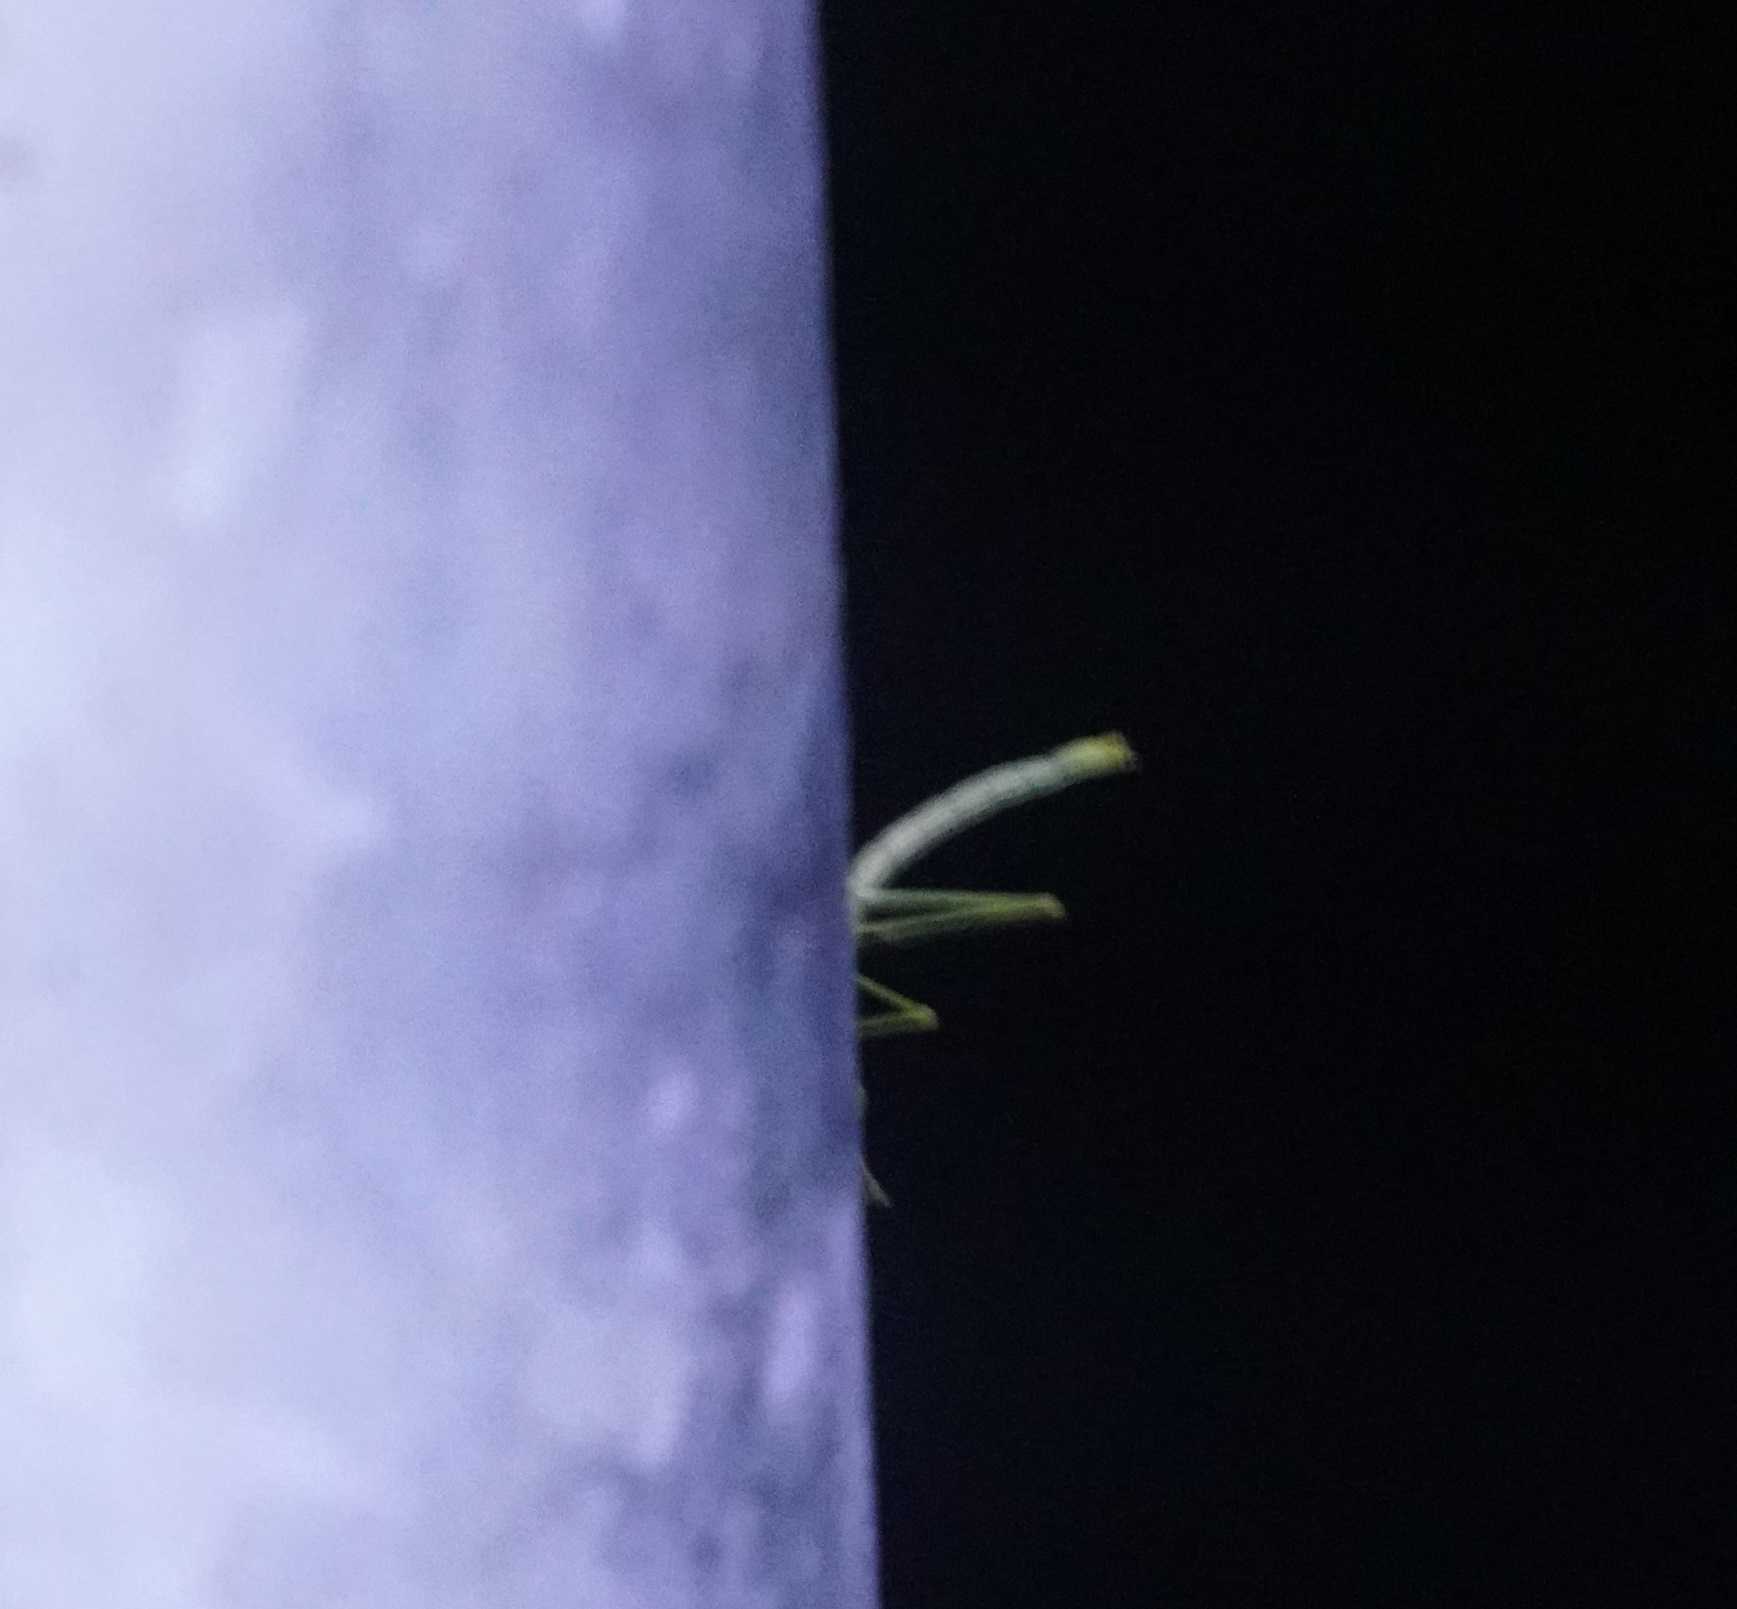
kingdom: Animalia
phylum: Arthropoda
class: Insecta
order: Phasmida
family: Phasmatidae
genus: Anchiale
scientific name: Anchiale briareus
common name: Strong stick insect
